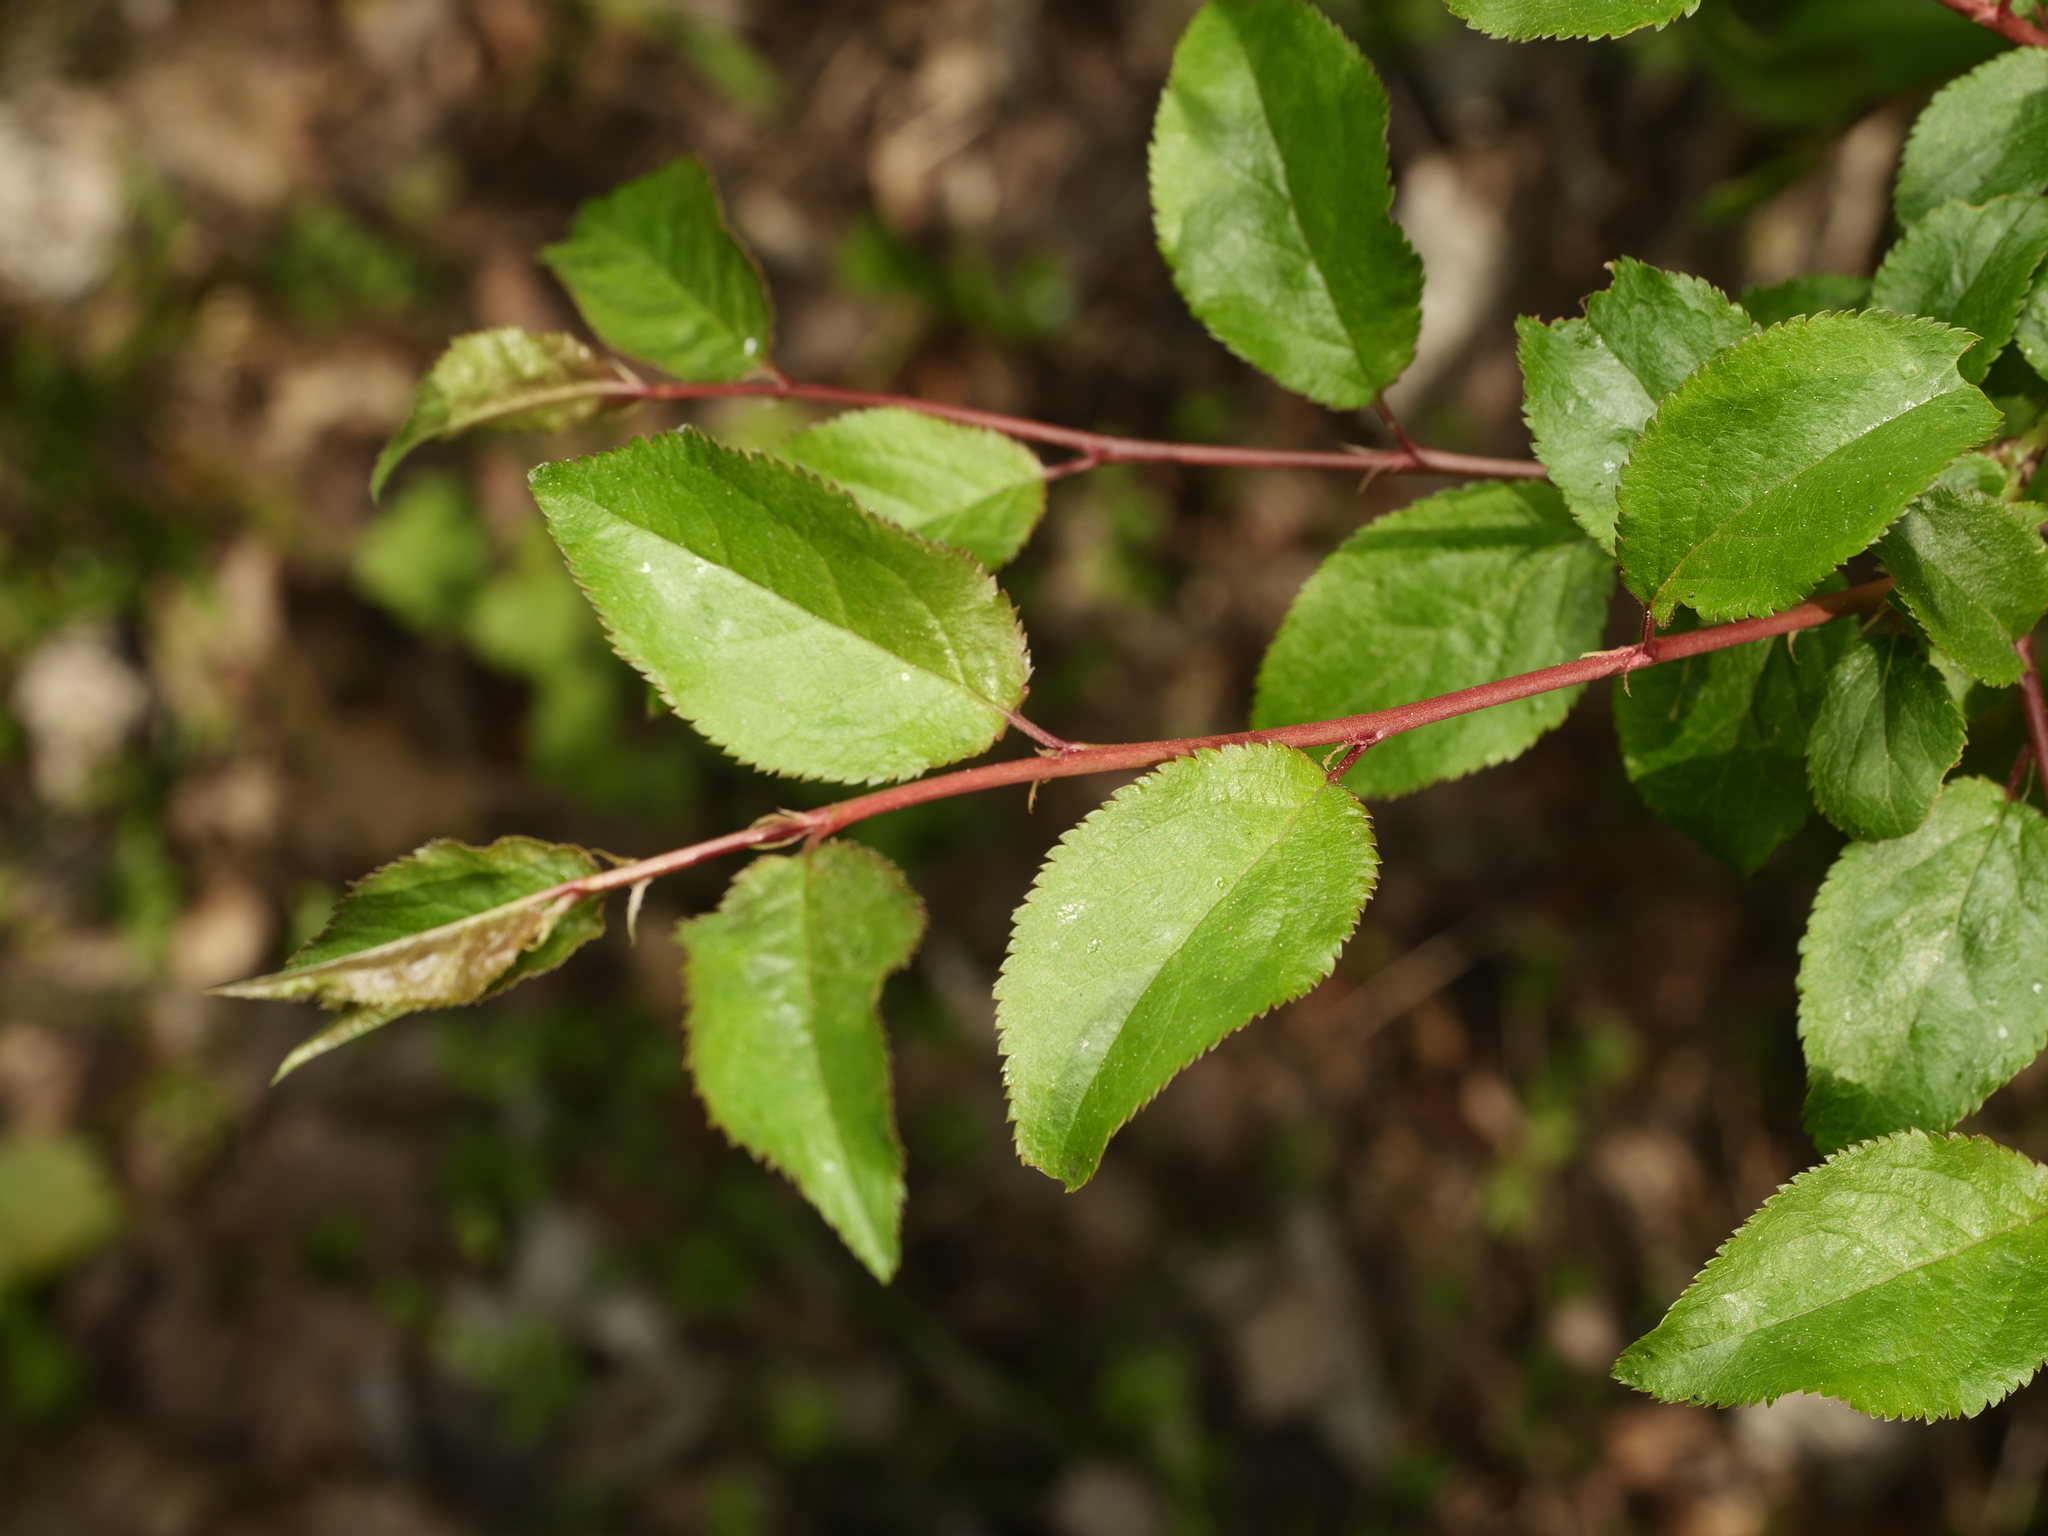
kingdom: Plantae
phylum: Tracheophyta
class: Magnoliopsida
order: Rosales
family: Rosaceae
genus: Prunus
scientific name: Prunus cerasifera
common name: Cherry plum
